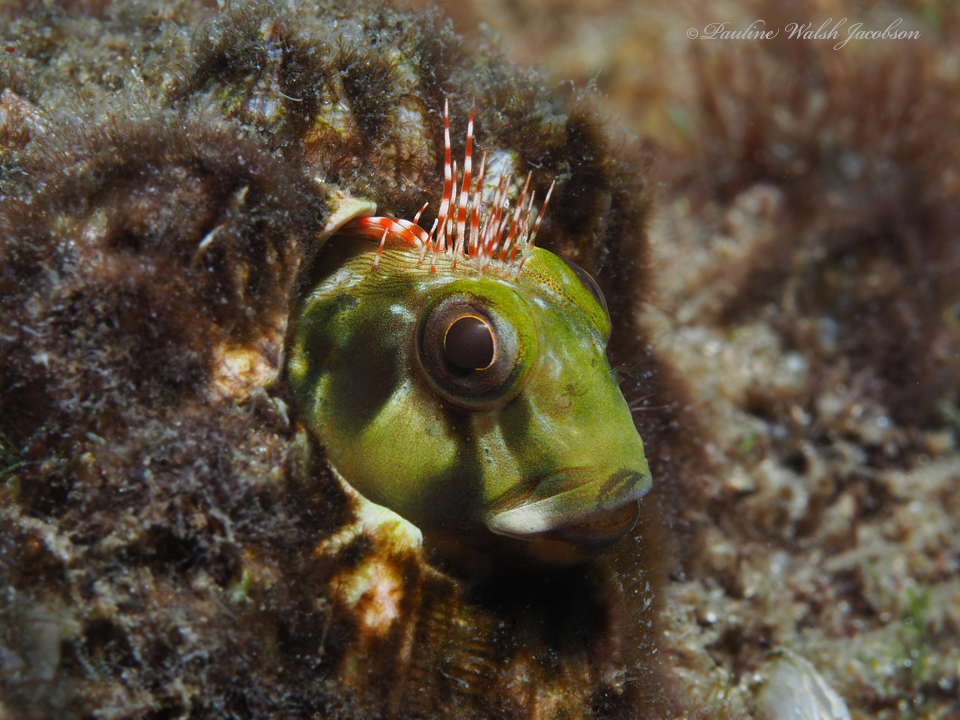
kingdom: Animalia
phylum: Chordata
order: Perciformes
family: Blenniidae
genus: Scartella
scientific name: Scartella cristata
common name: Molly miller
